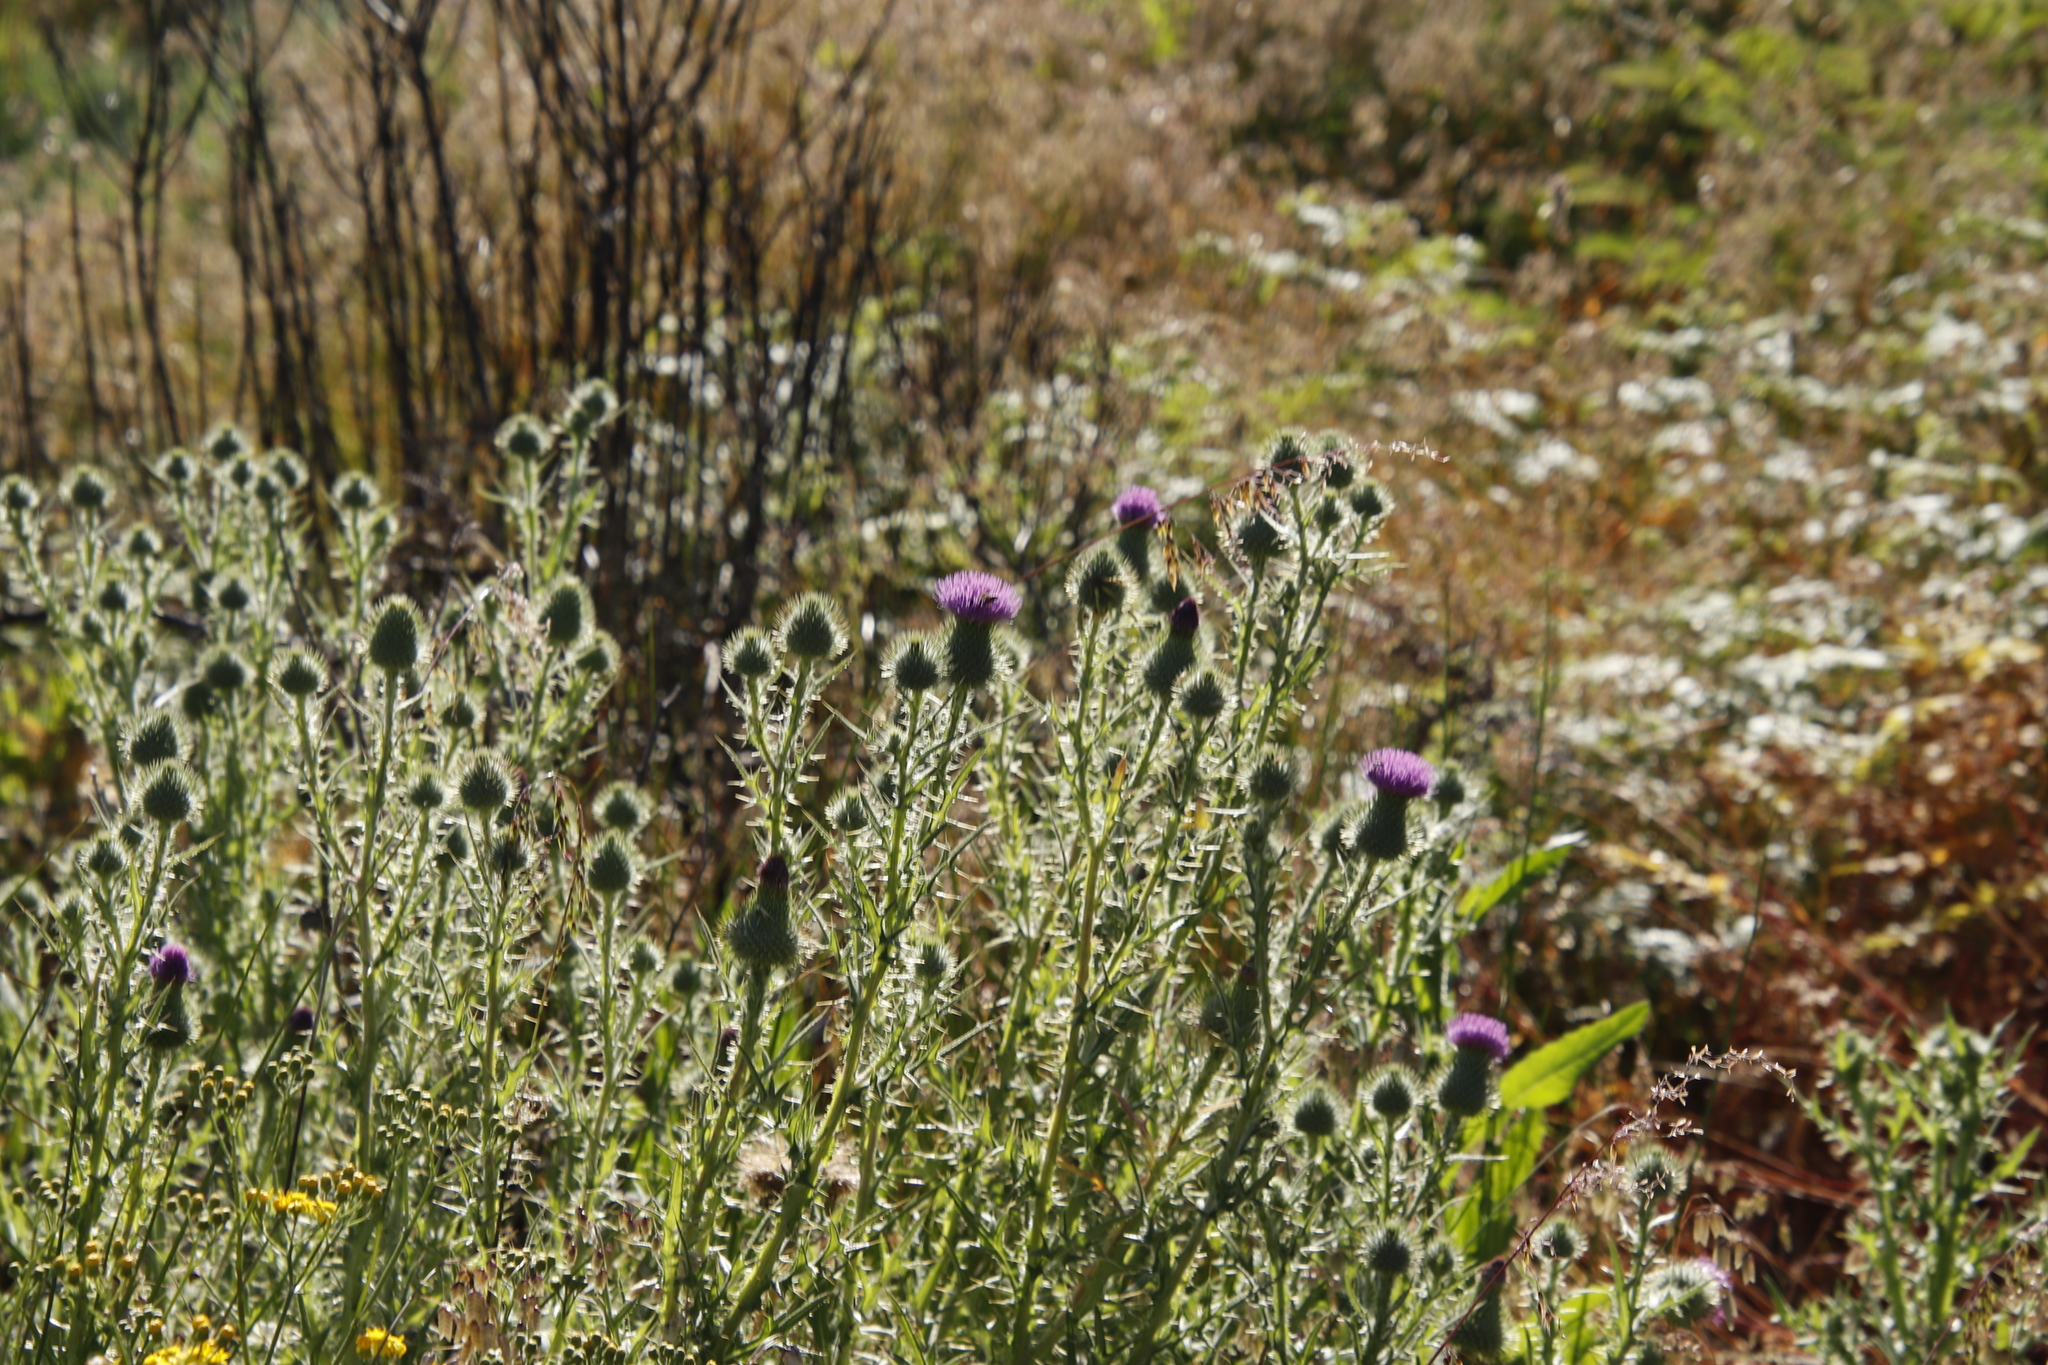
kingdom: Plantae
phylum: Tracheophyta
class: Magnoliopsida
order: Asterales
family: Asteraceae
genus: Cirsium
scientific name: Cirsium vulgare
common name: Bull thistle
